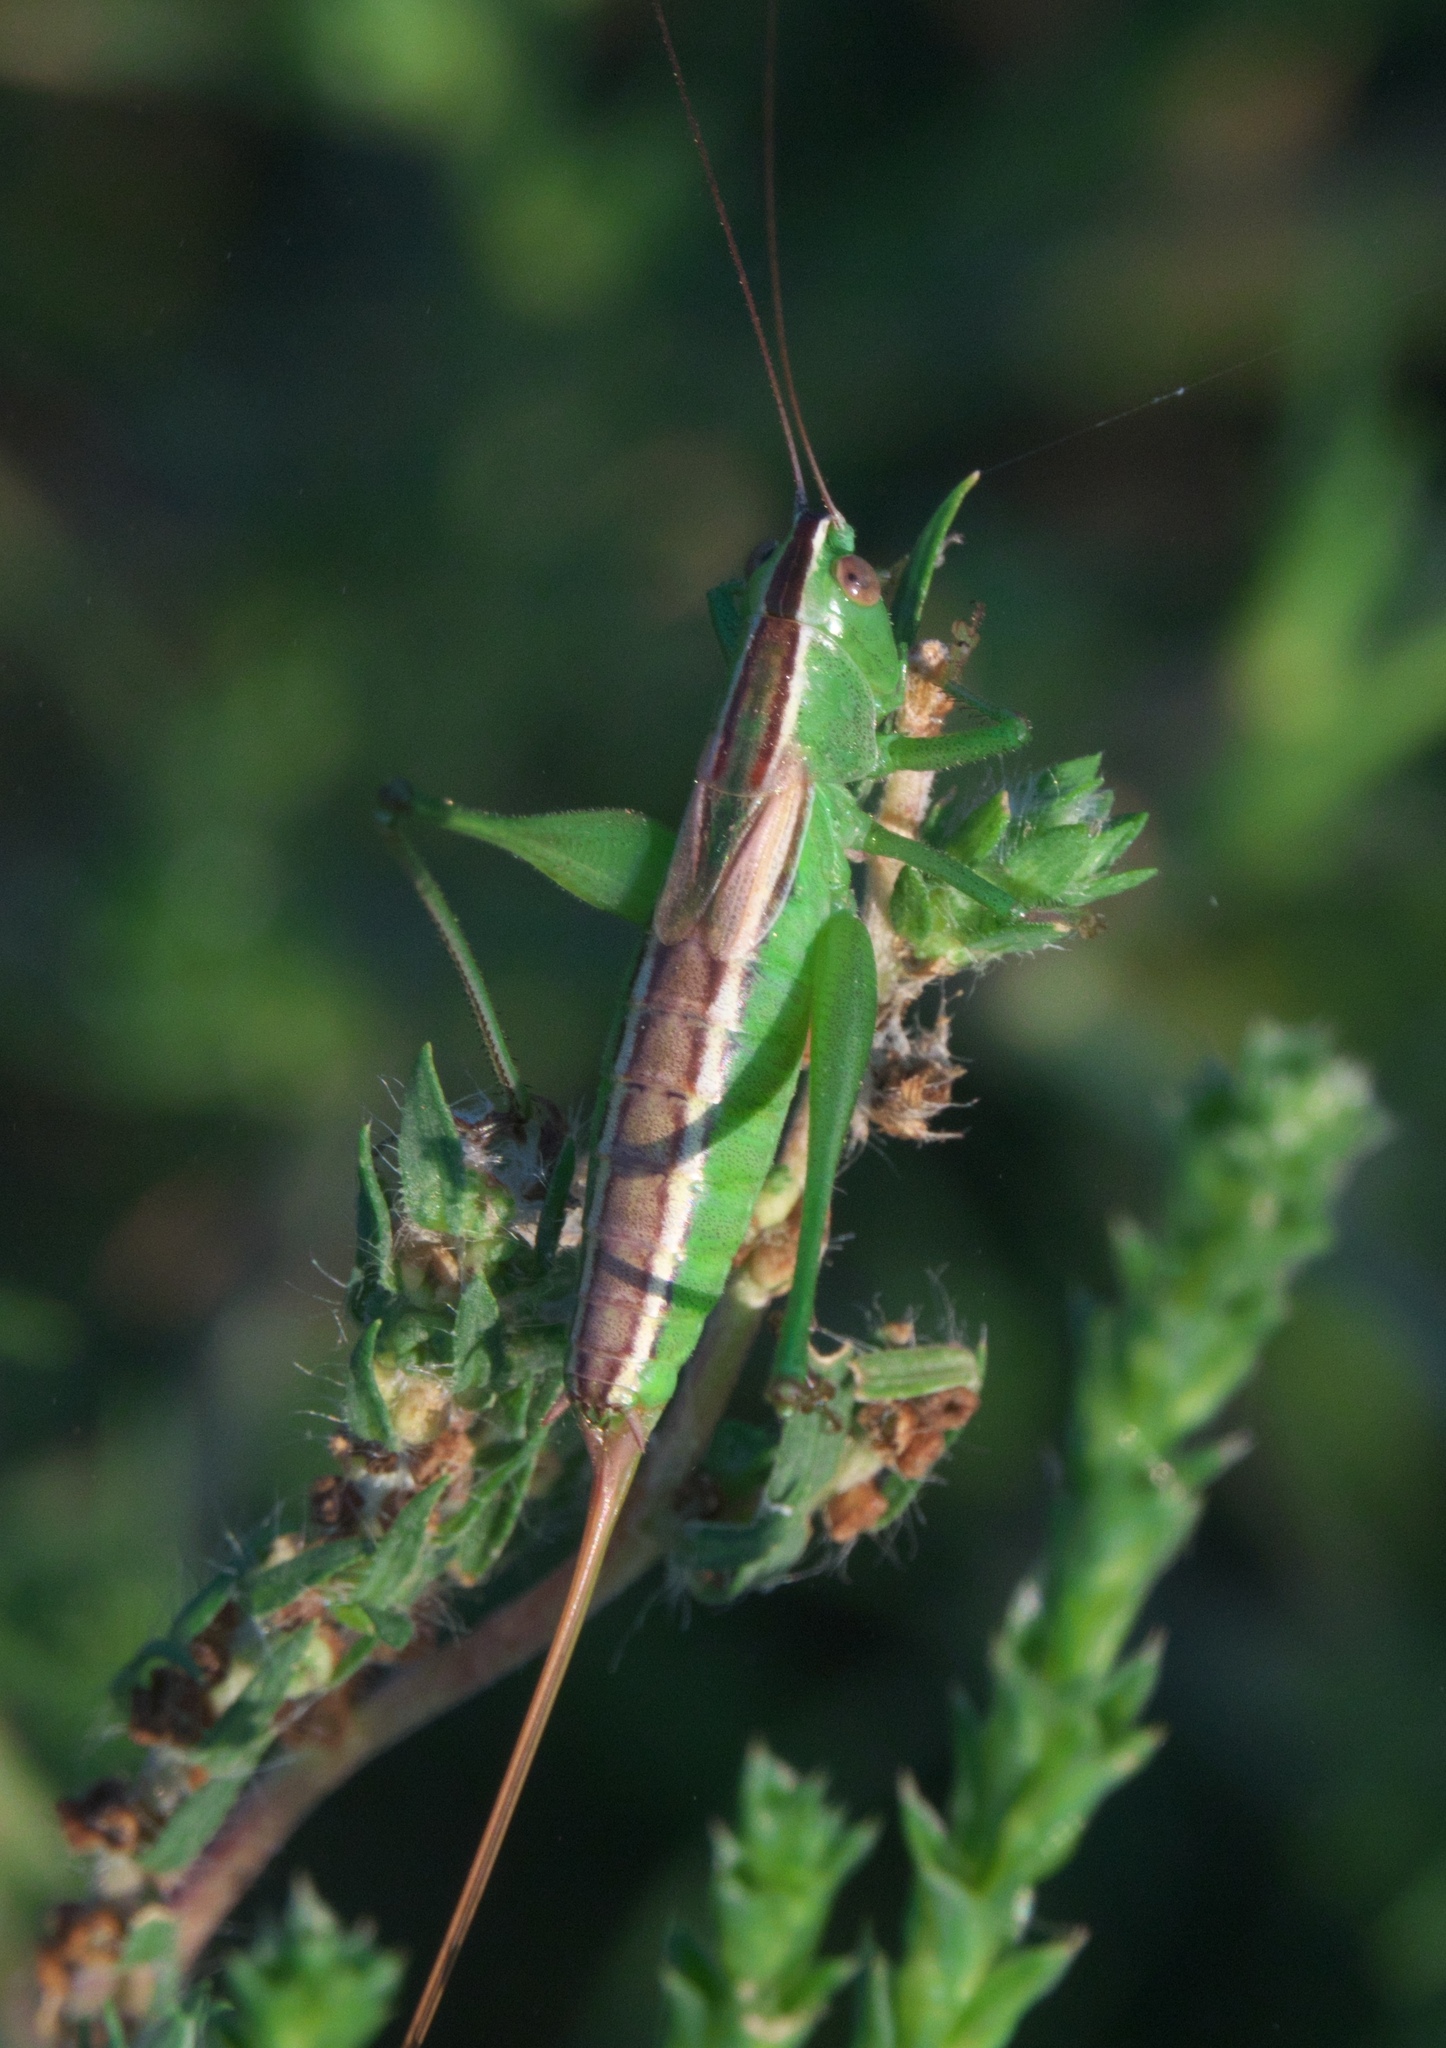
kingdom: Animalia
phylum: Arthropoda
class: Insecta
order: Orthoptera
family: Tettigoniidae
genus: Conocephalus
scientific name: Conocephalus saltans
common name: Prairie meadow katydid
